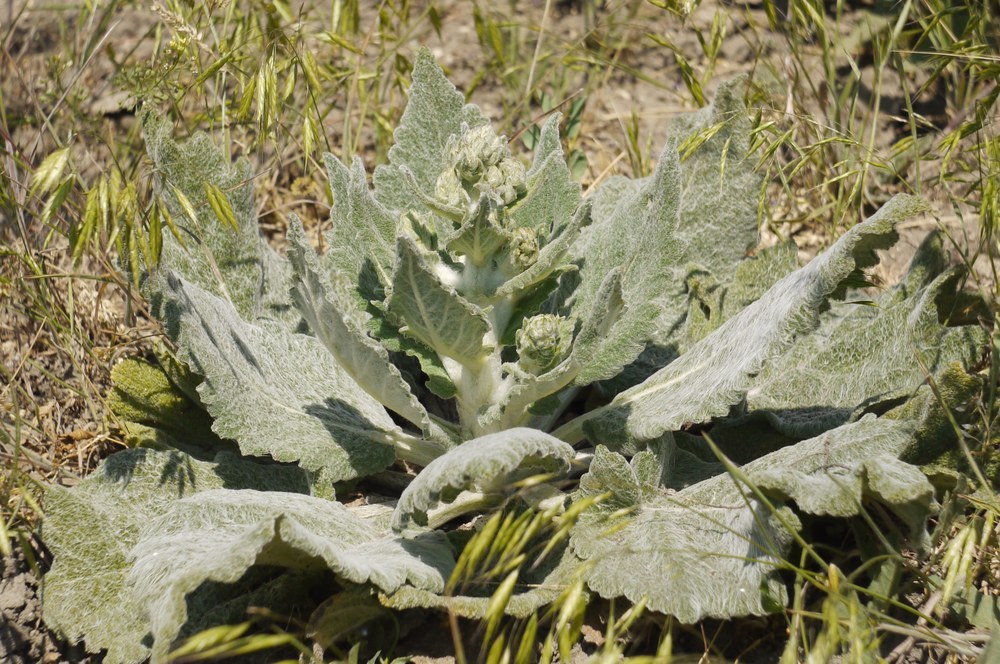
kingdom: Plantae
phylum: Tracheophyta
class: Magnoliopsida
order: Lamiales
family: Lamiaceae
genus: Salvia
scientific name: Salvia aethiopis
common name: Mediterranean sage
